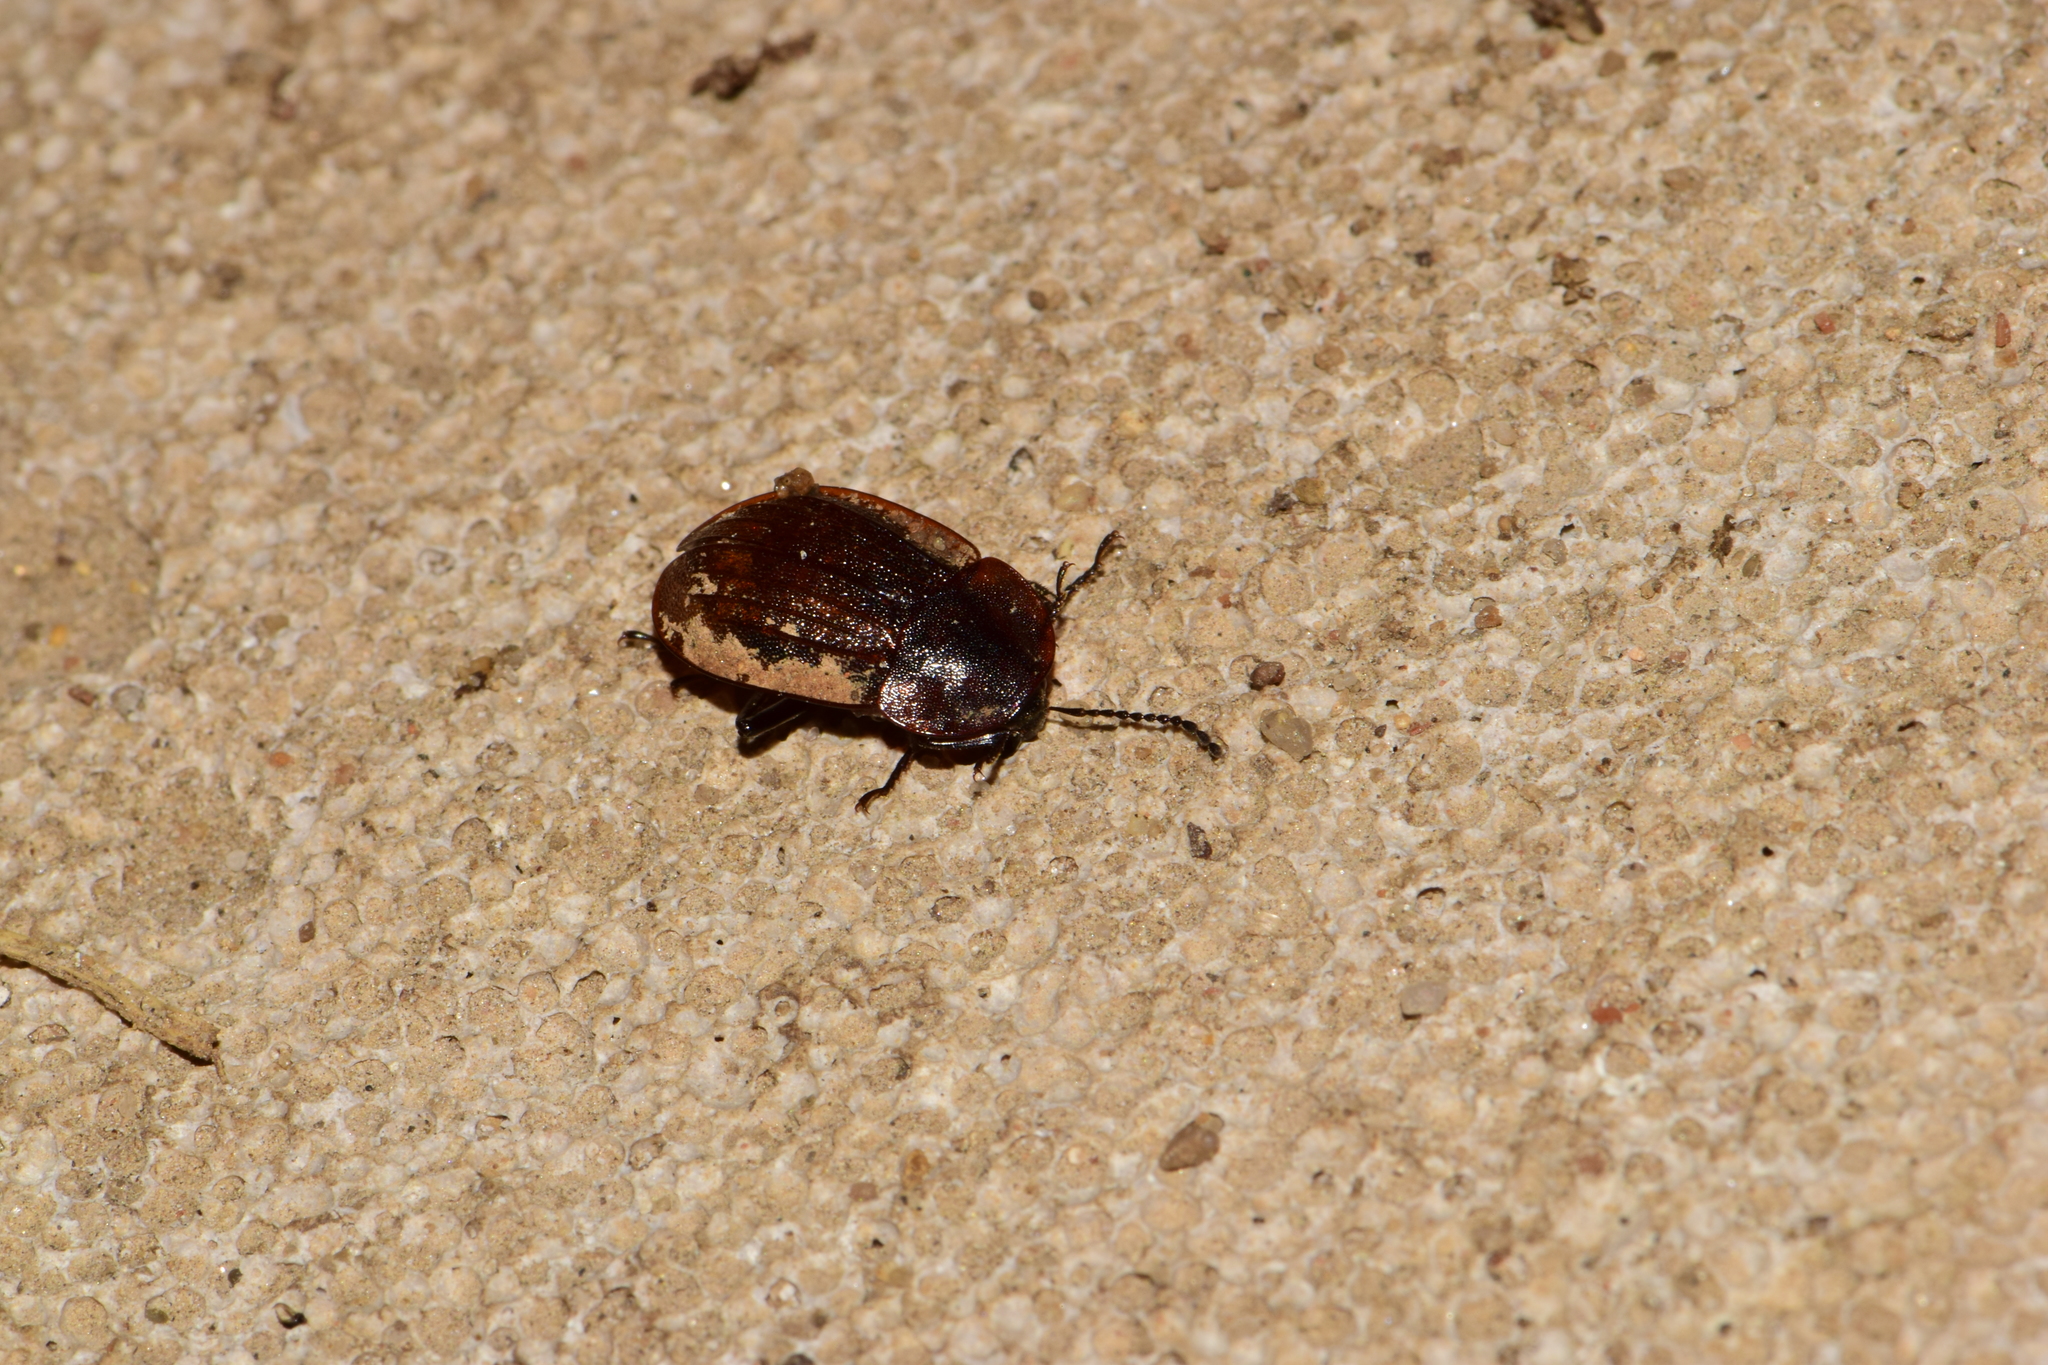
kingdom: Animalia
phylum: Arthropoda
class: Insecta
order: Coleoptera
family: Staphylinidae
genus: Silpha
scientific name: Silpha atrata
